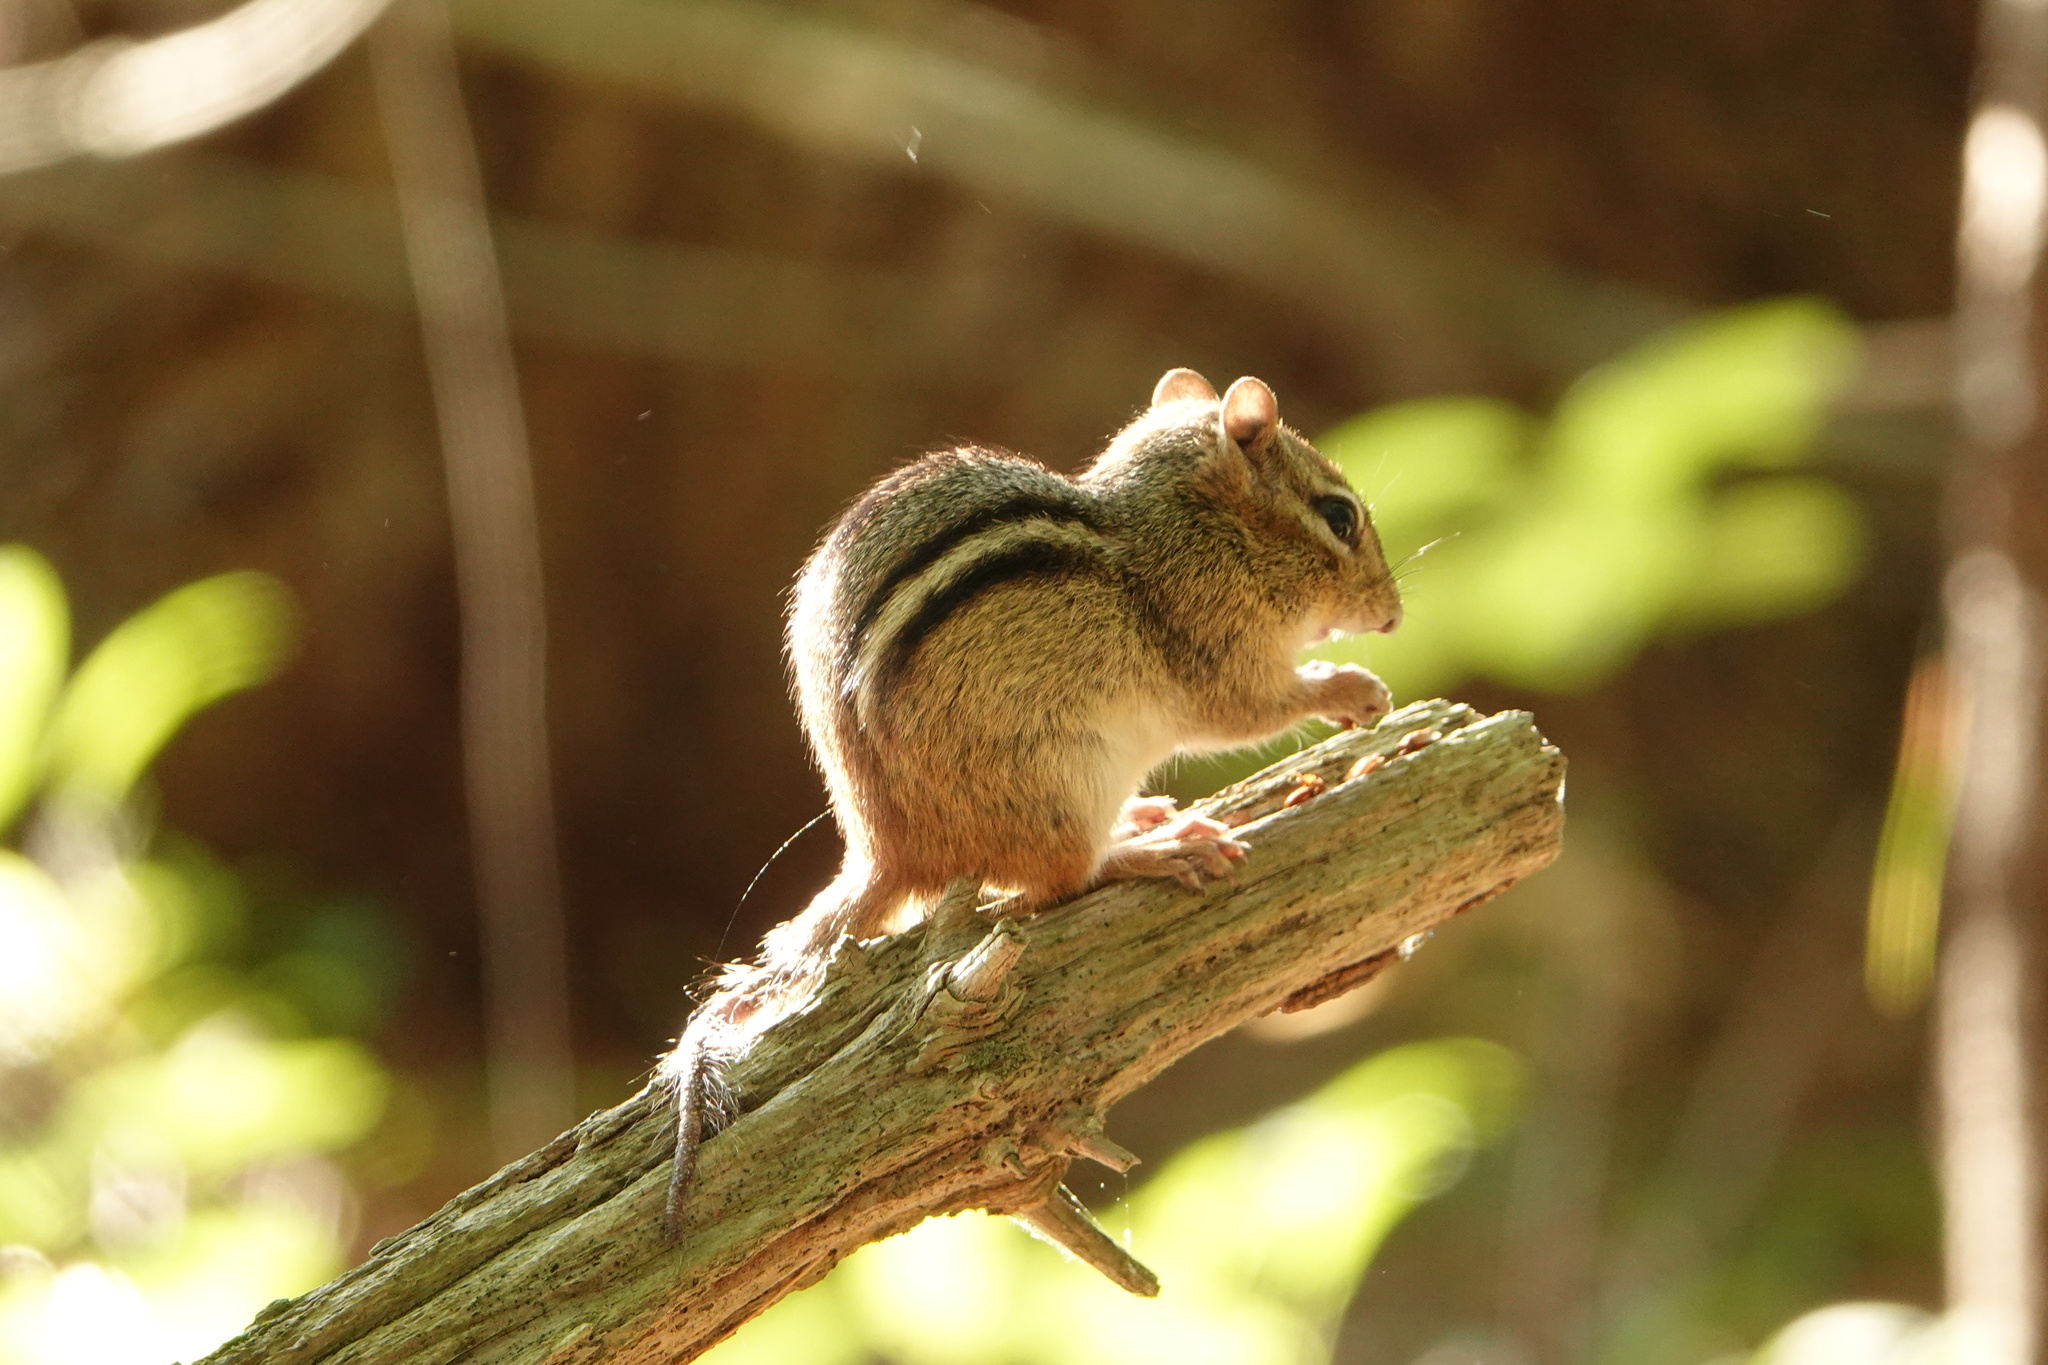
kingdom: Animalia
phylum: Chordata
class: Mammalia
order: Rodentia
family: Sciuridae
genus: Tamias
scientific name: Tamias striatus
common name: Eastern chipmunk
